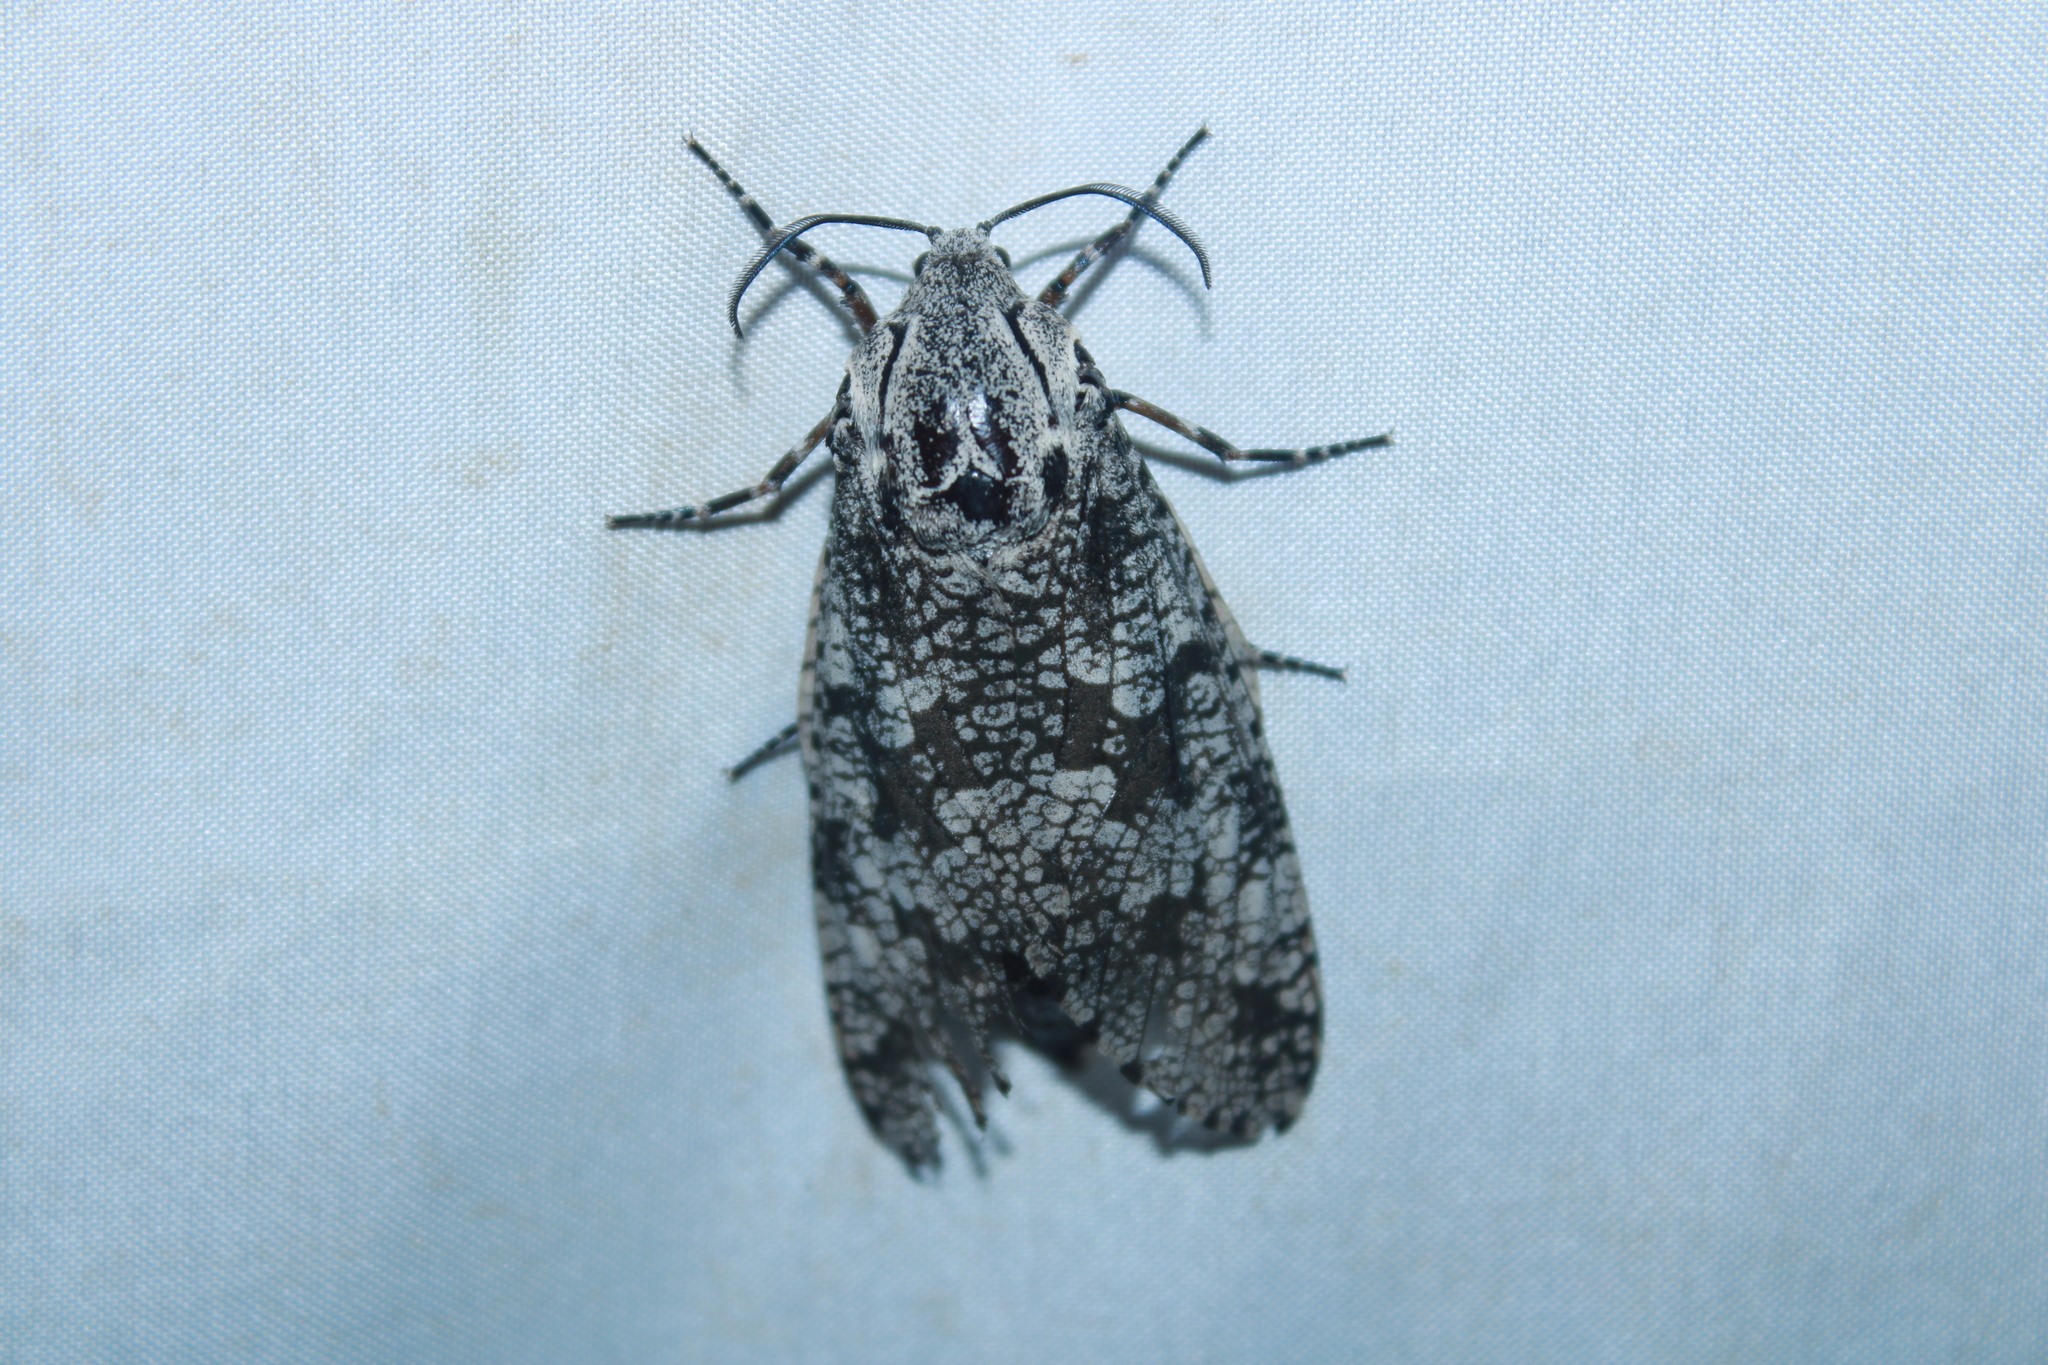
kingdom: Animalia
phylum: Arthropoda
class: Insecta
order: Lepidoptera
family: Cossidae
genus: Prionoxystus
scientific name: Prionoxystus robiniae
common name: Carpenterworm
